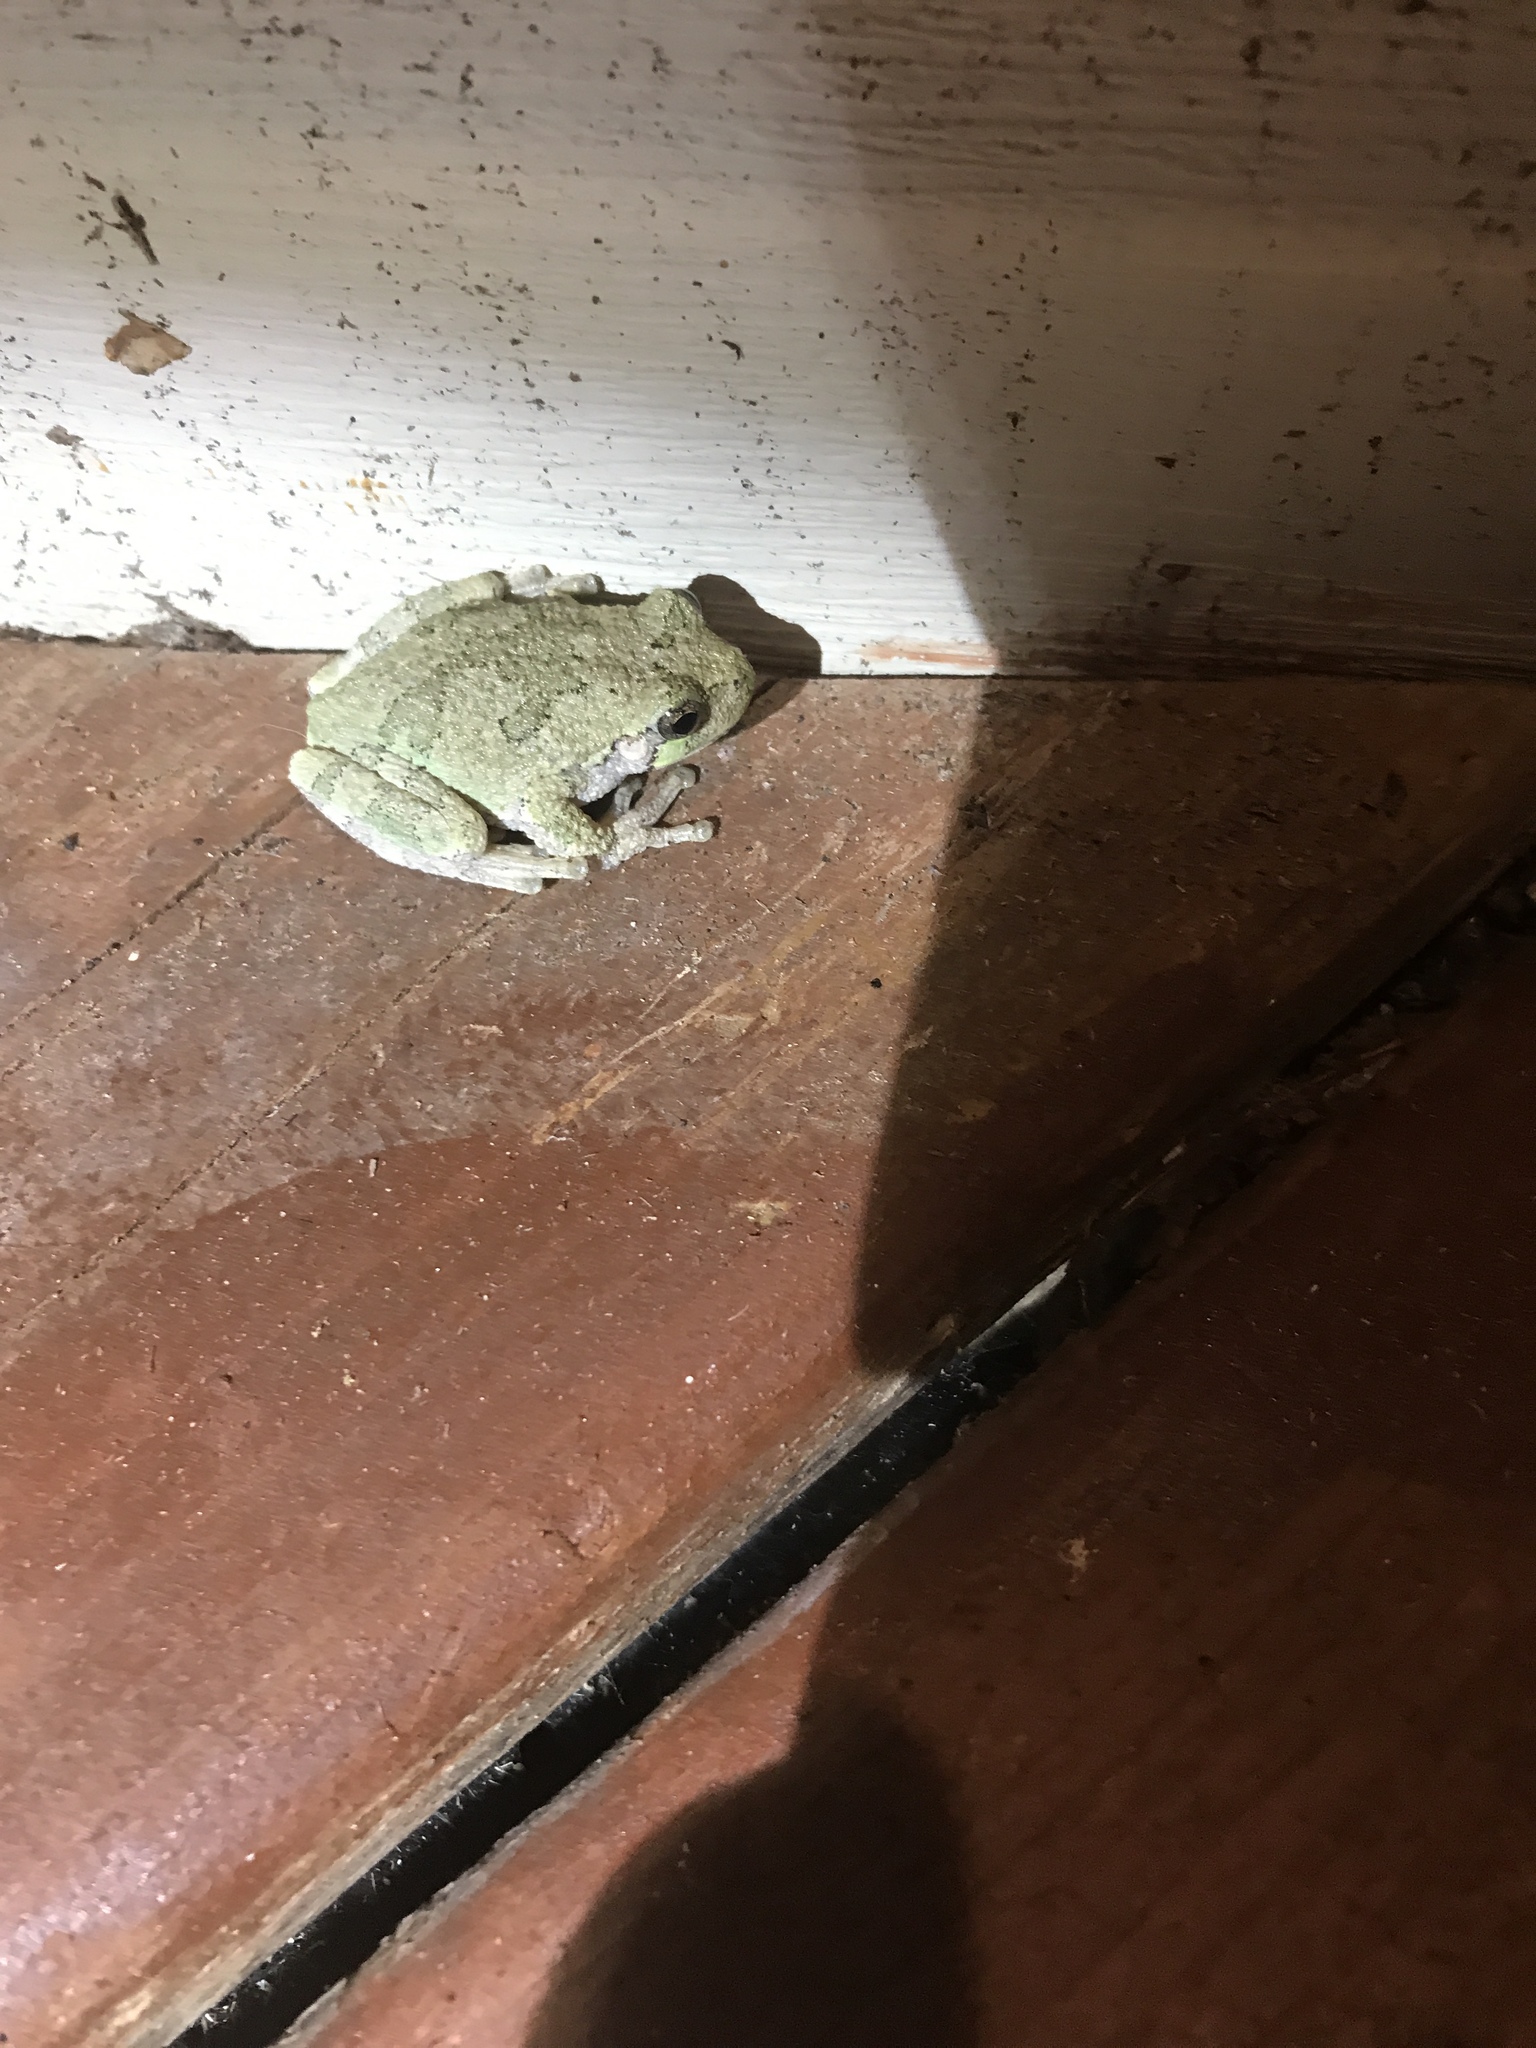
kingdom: Animalia
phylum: Chordata
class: Amphibia
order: Anura
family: Hylidae
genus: Hyla
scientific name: Hyla
